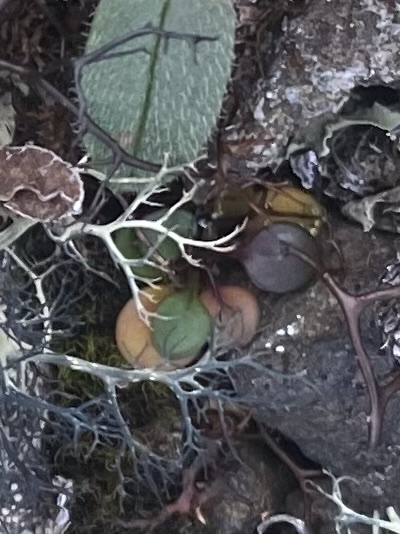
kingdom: Plantae
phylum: Tracheophyta
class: Magnoliopsida
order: Brassicales
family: Brassicaceae
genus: Cardamine
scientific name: Cardamine bellidifolia
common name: Alpine bittercress
